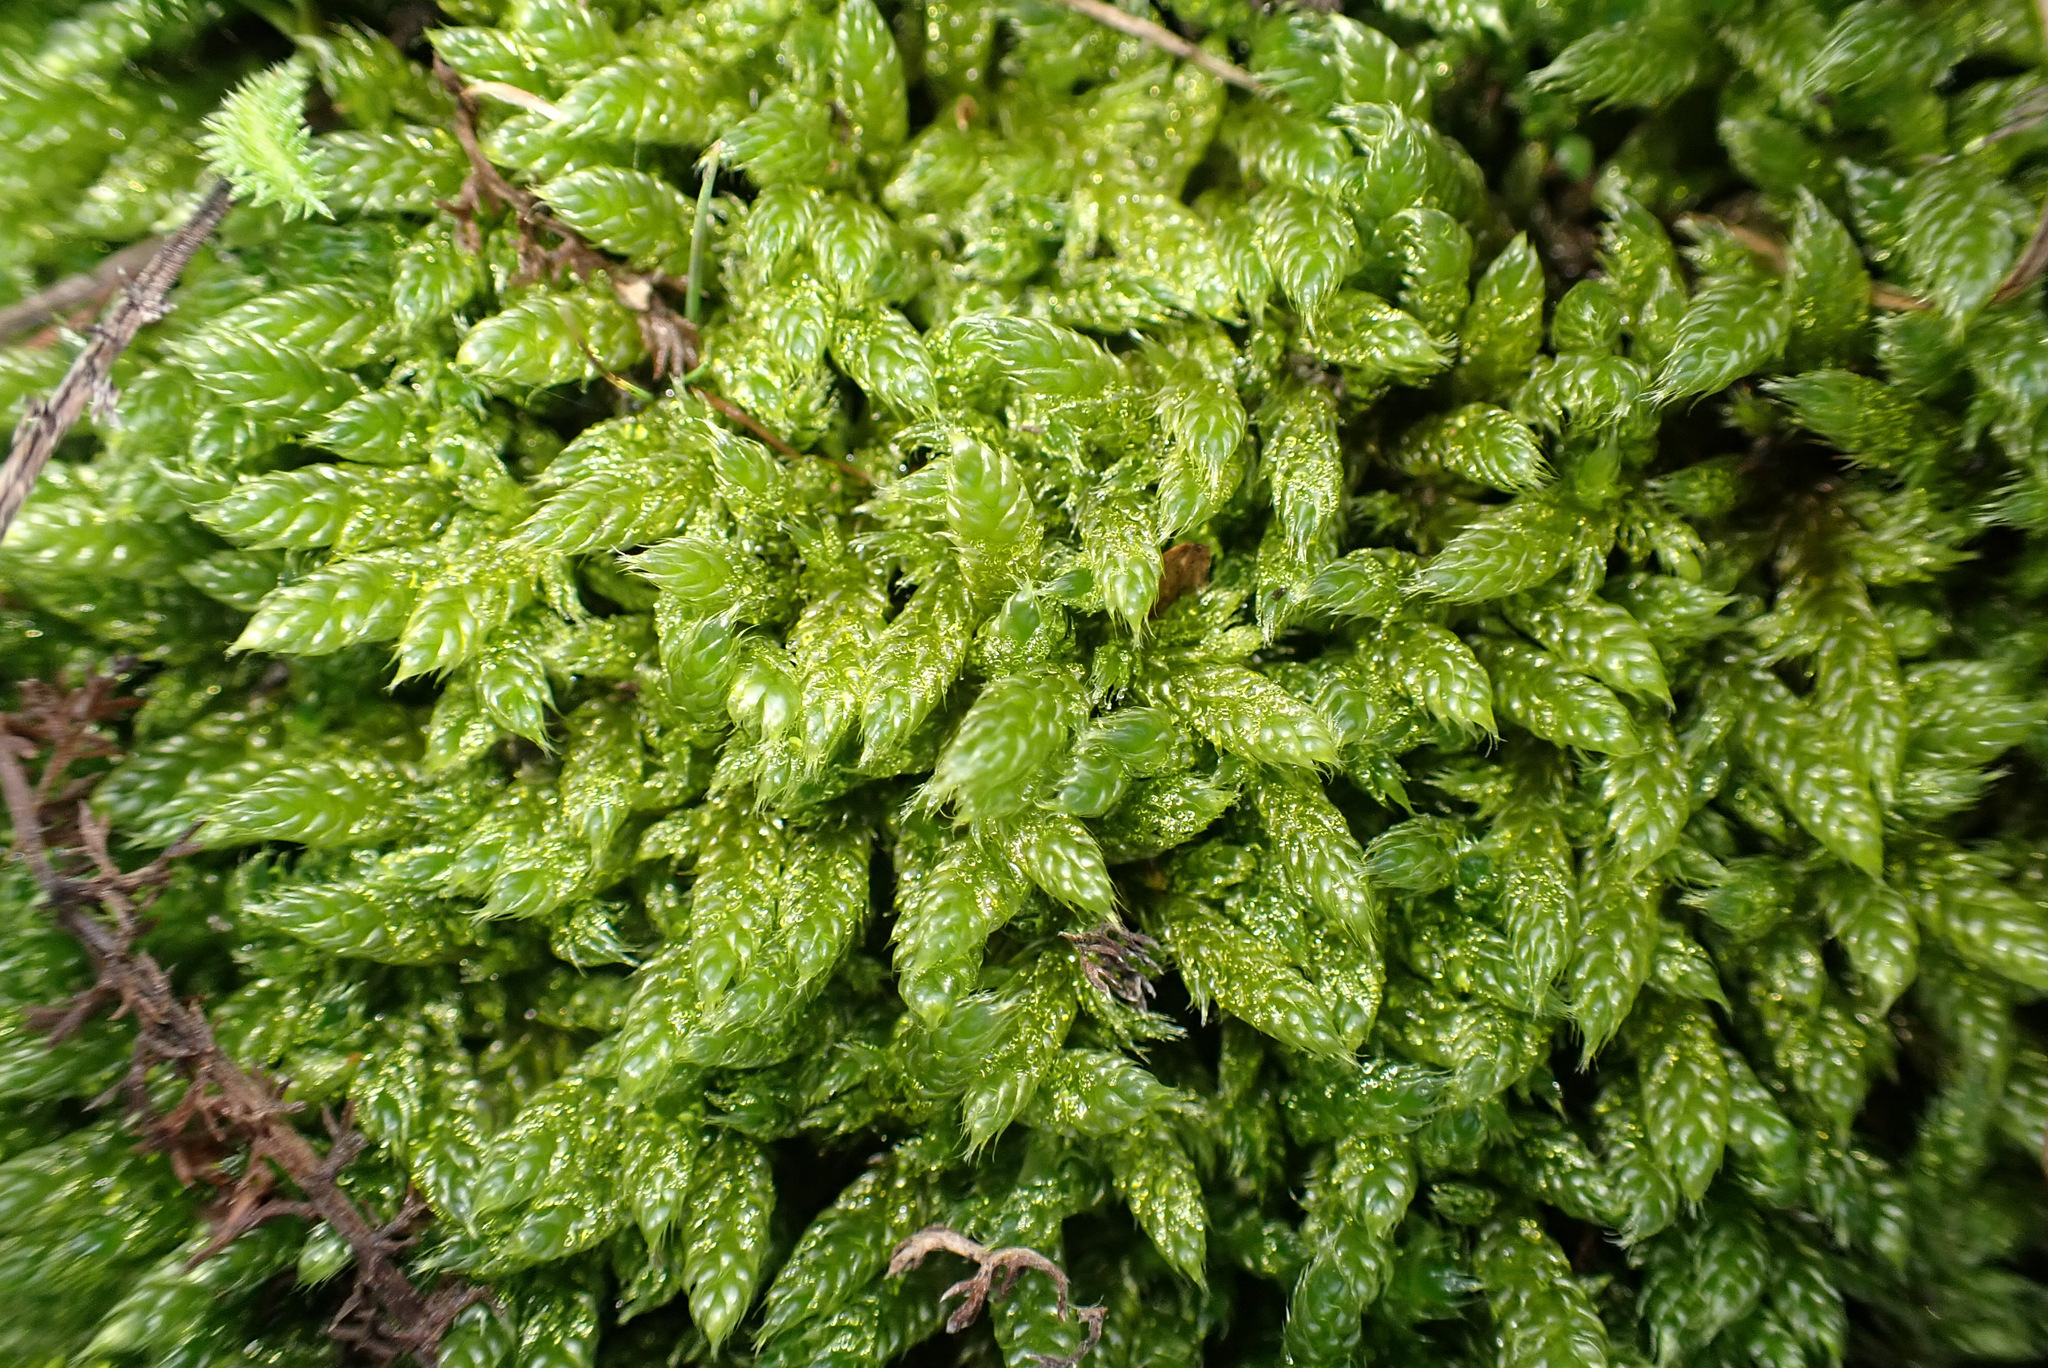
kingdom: Plantae
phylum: Bryophyta
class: Bryopsida
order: Hypnales
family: Hypnaceae
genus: Hypnum
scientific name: Hypnum cupressiforme
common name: Cypress-leaved plait-moss
